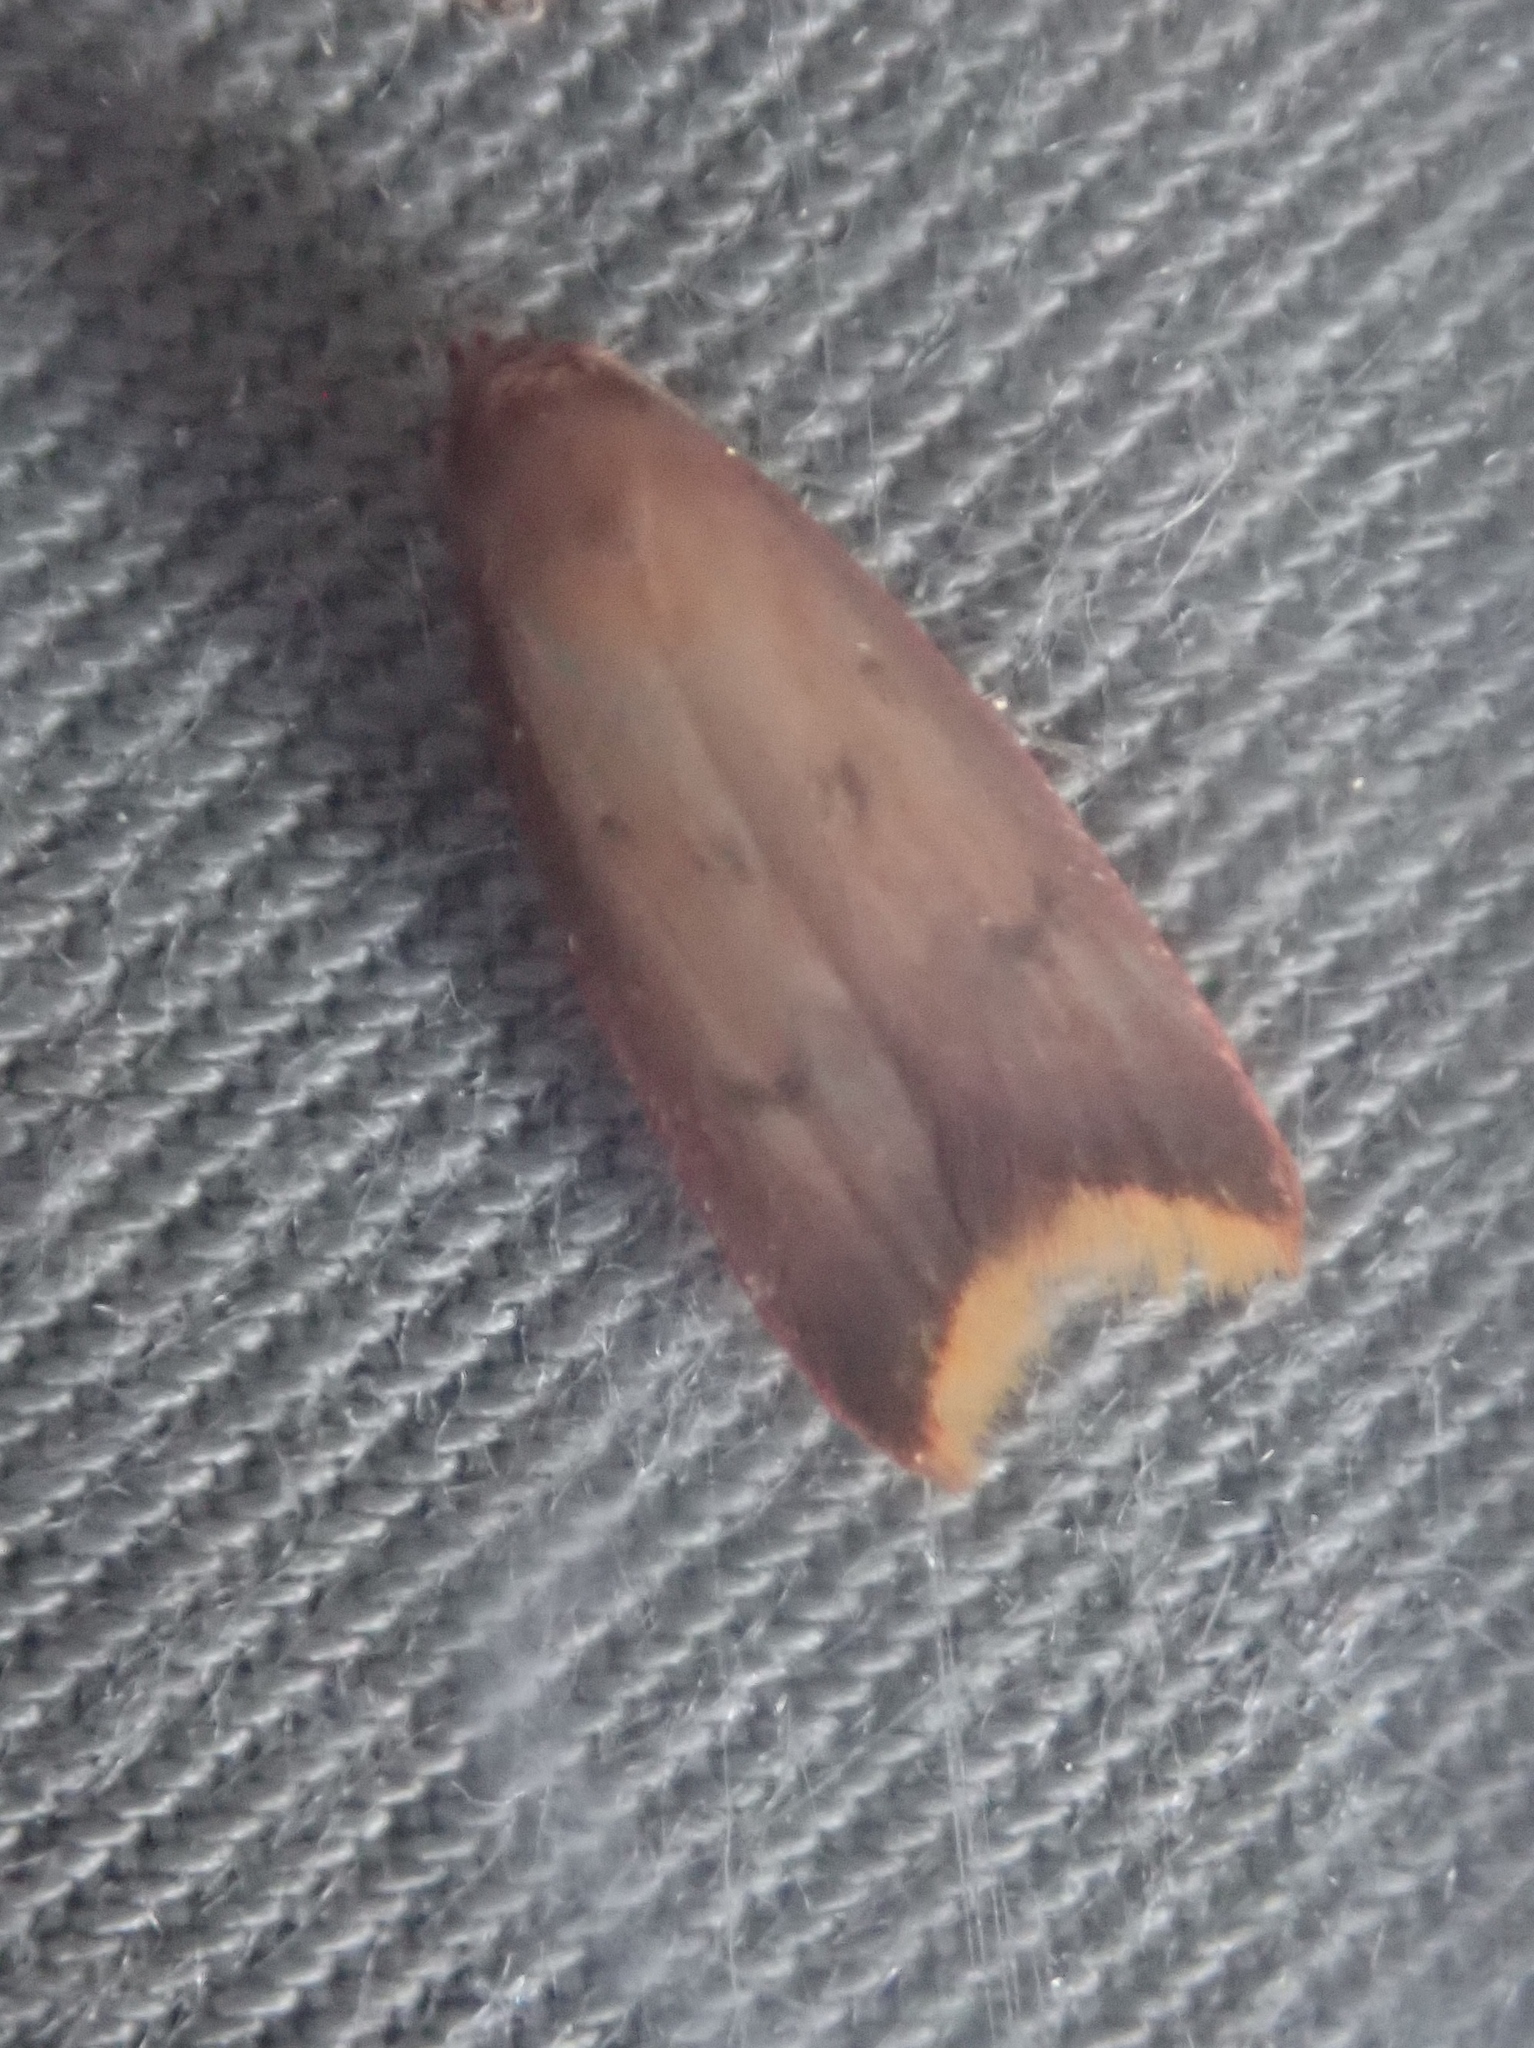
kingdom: Animalia
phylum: Arthropoda
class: Insecta
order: Lepidoptera
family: Oecophoridae
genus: Tachystola
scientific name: Tachystola acroxantha
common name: Ruddy streak
